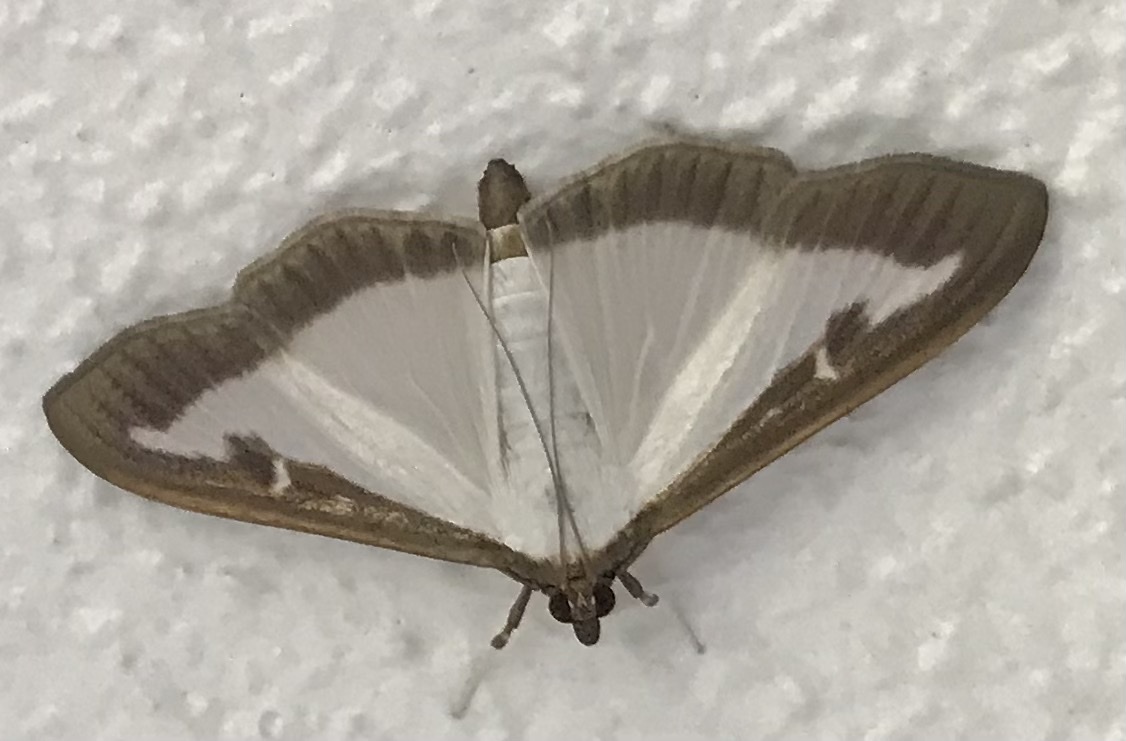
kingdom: Animalia
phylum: Arthropoda
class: Insecta
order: Lepidoptera
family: Crambidae
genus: Cydalima
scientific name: Cydalima perspectalis
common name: Box tree moth
